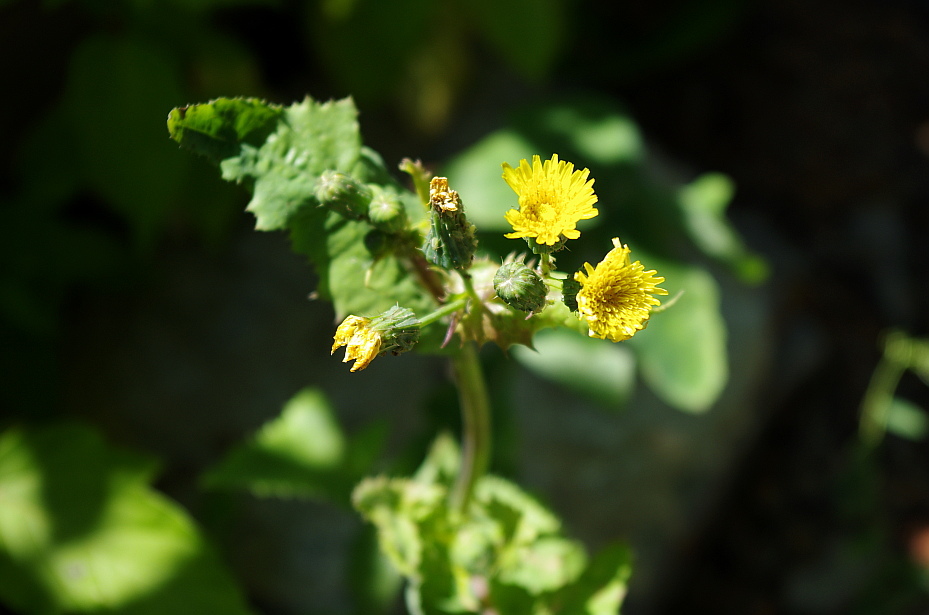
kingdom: Plantae
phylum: Tracheophyta
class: Magnoliopsida
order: Asterales
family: Asteraceae
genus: Sonchus
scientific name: Sonchus oleraceus
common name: Common sowthistle
